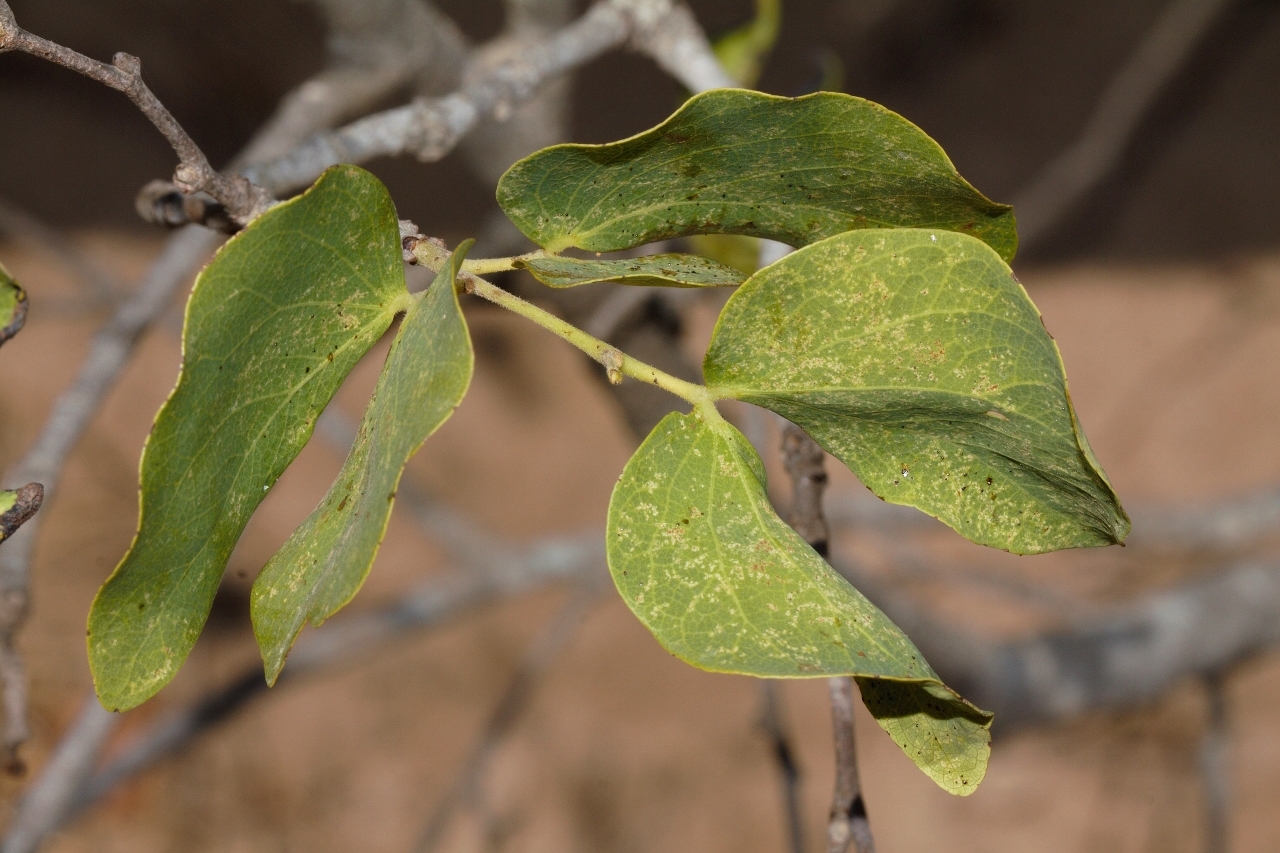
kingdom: Plantae
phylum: Tracheophyta
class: Magnoliopsida
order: Fabales
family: Fabaceae
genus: Guibourtia
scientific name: Guibourtia conjugata
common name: Small bastard mopane
